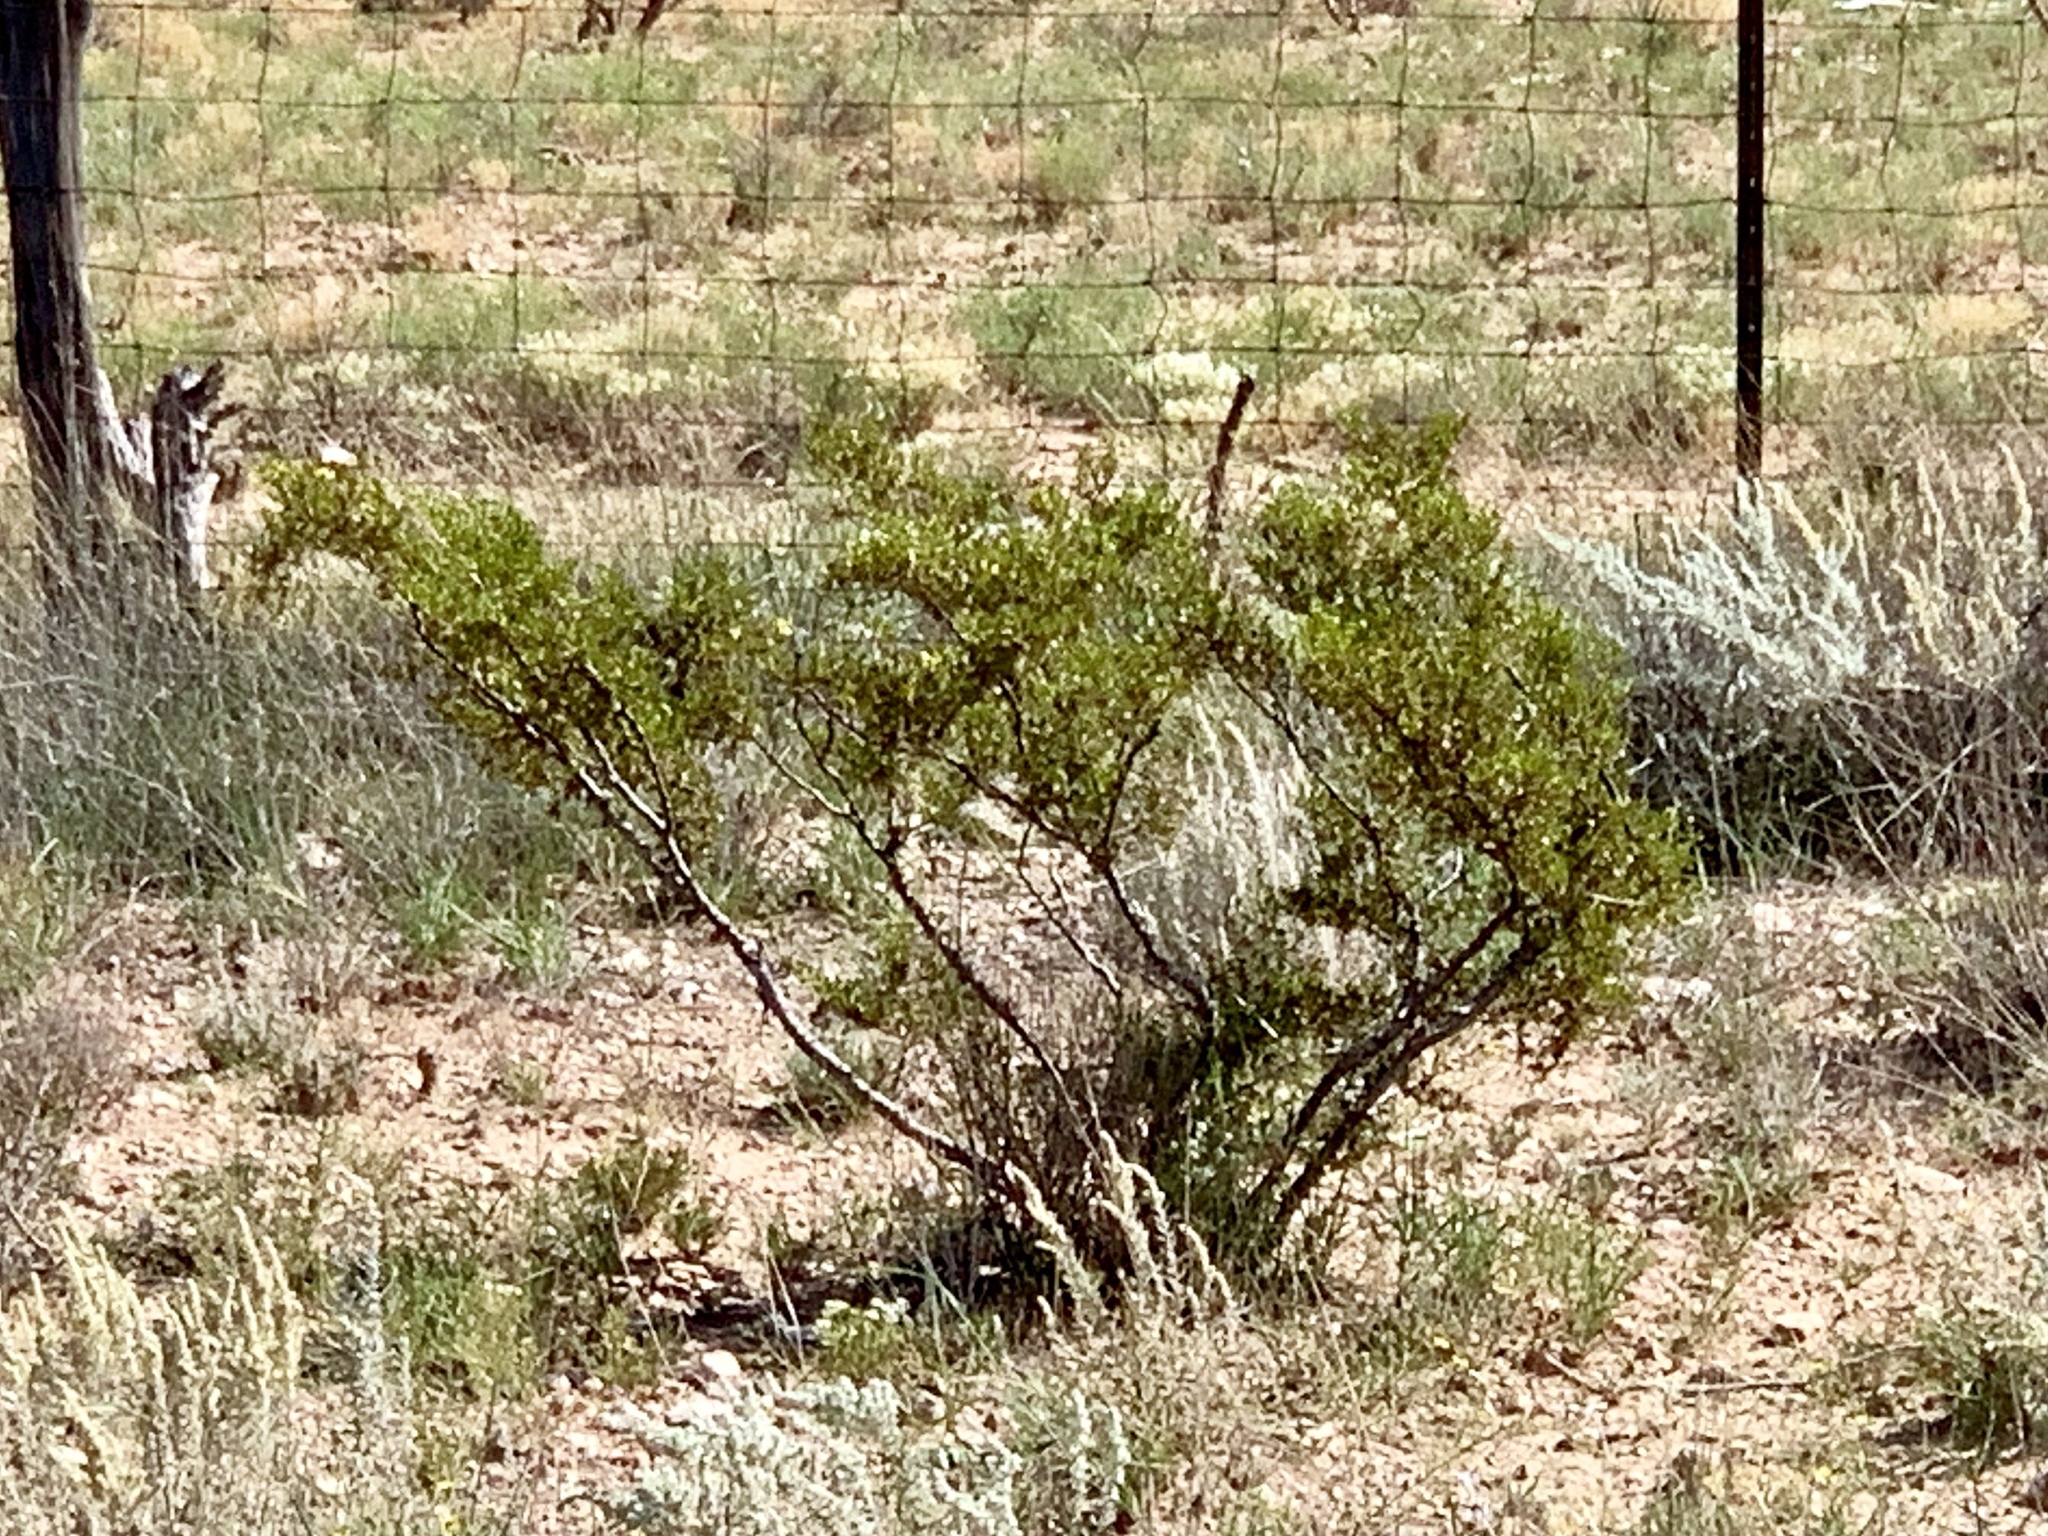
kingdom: Plantae
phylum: Tracheophyta
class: Magnoliopsida
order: Zygophyllales
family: Zygophyllaceae
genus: Larrea
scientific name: Larrea tridentata
